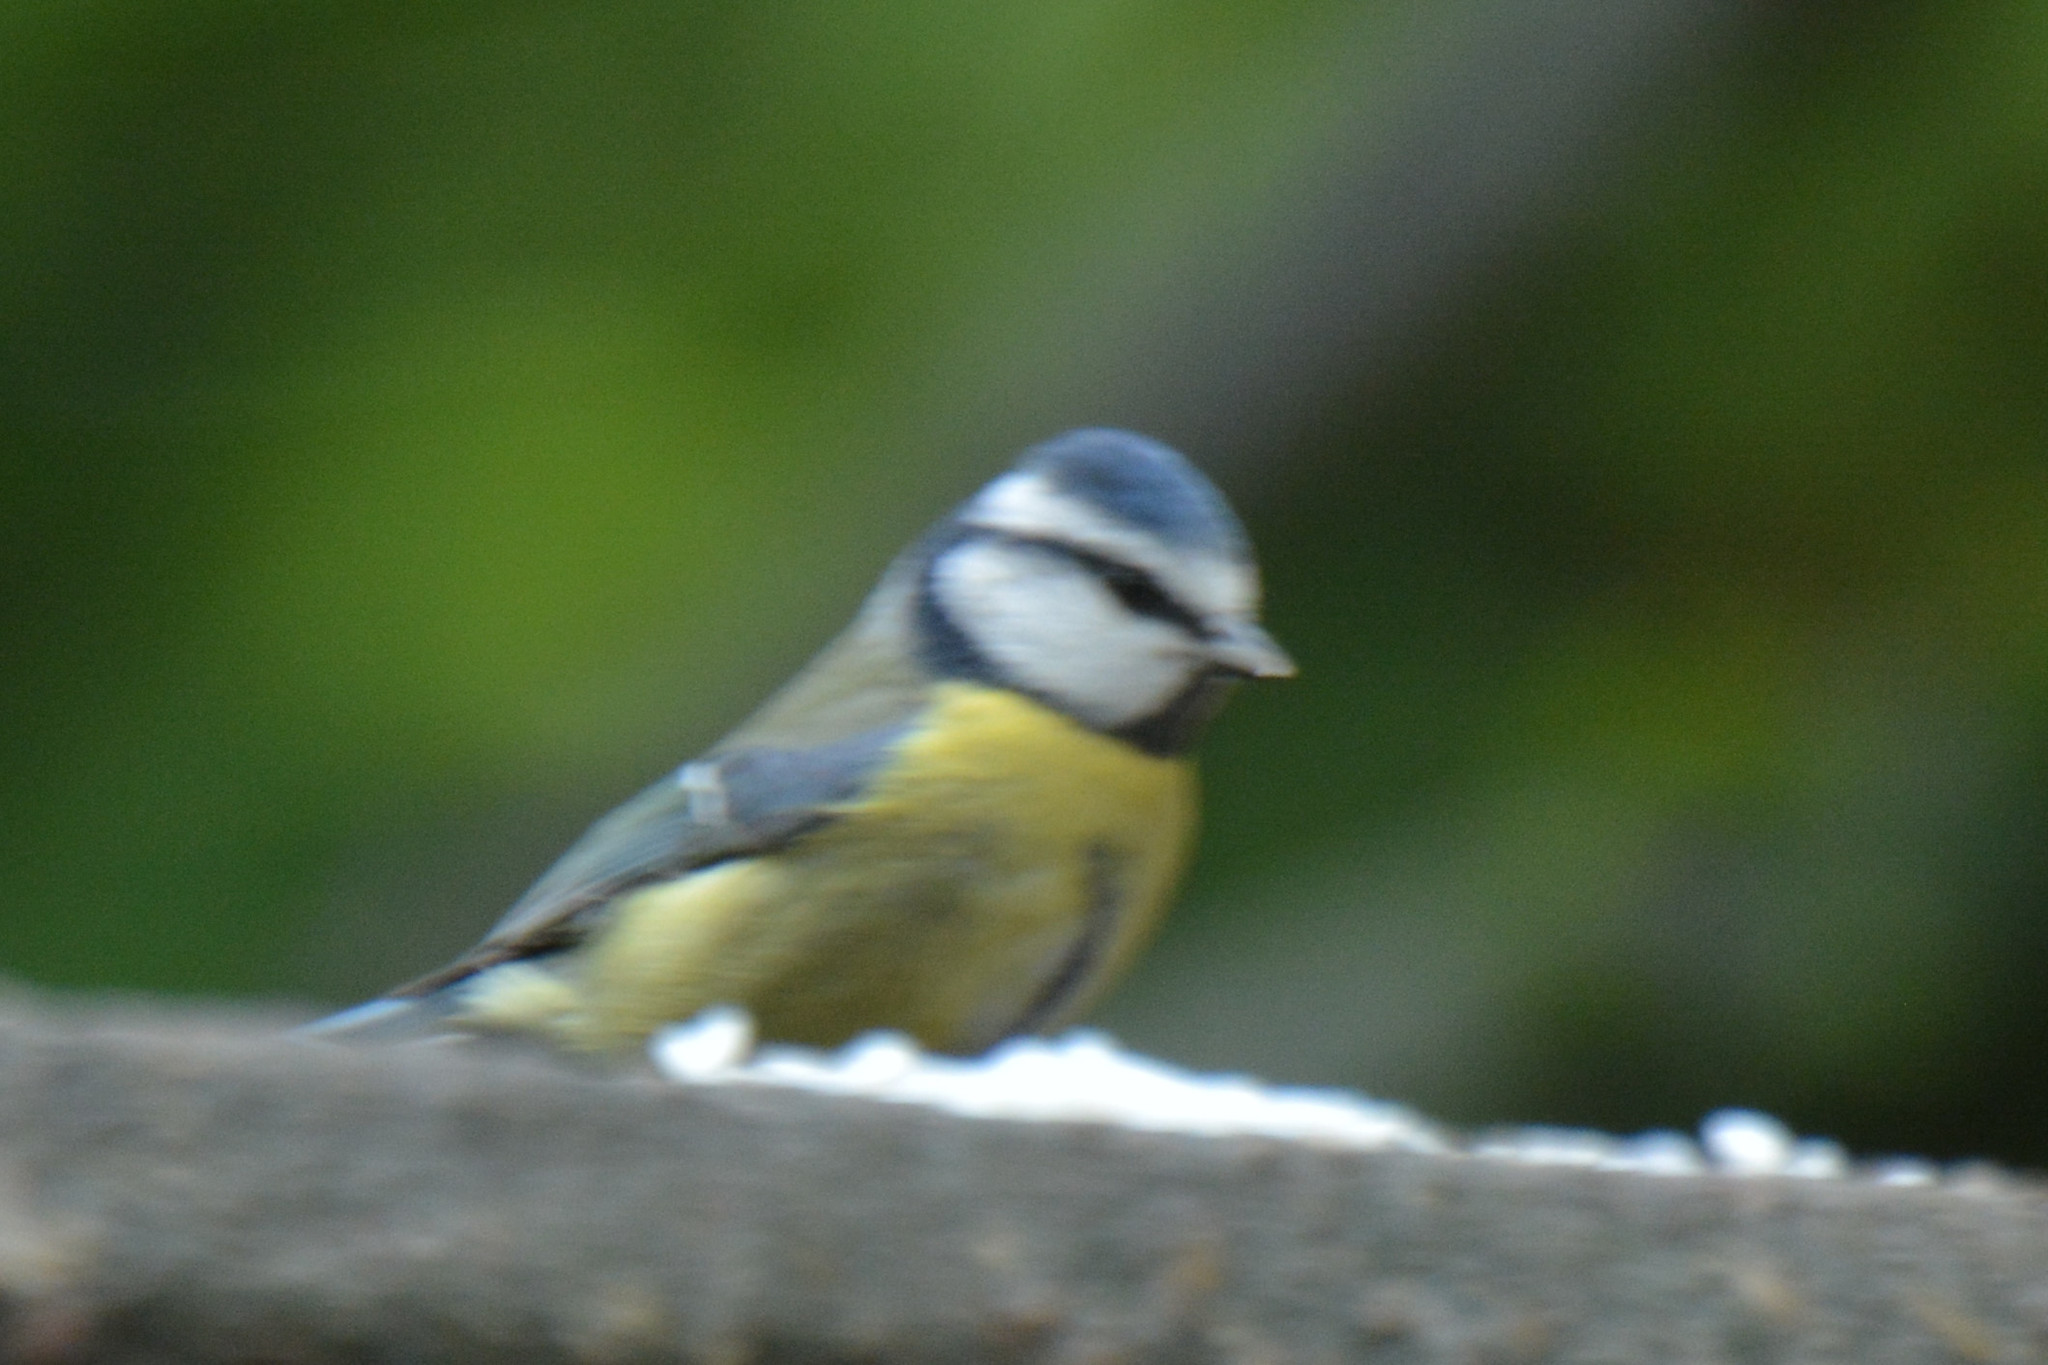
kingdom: Animalia
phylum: Chordata
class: Aves
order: Passeriformes
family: Paridae
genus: Cyanistes
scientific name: Cyanistes caeruleus
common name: Eurasian blue tit
